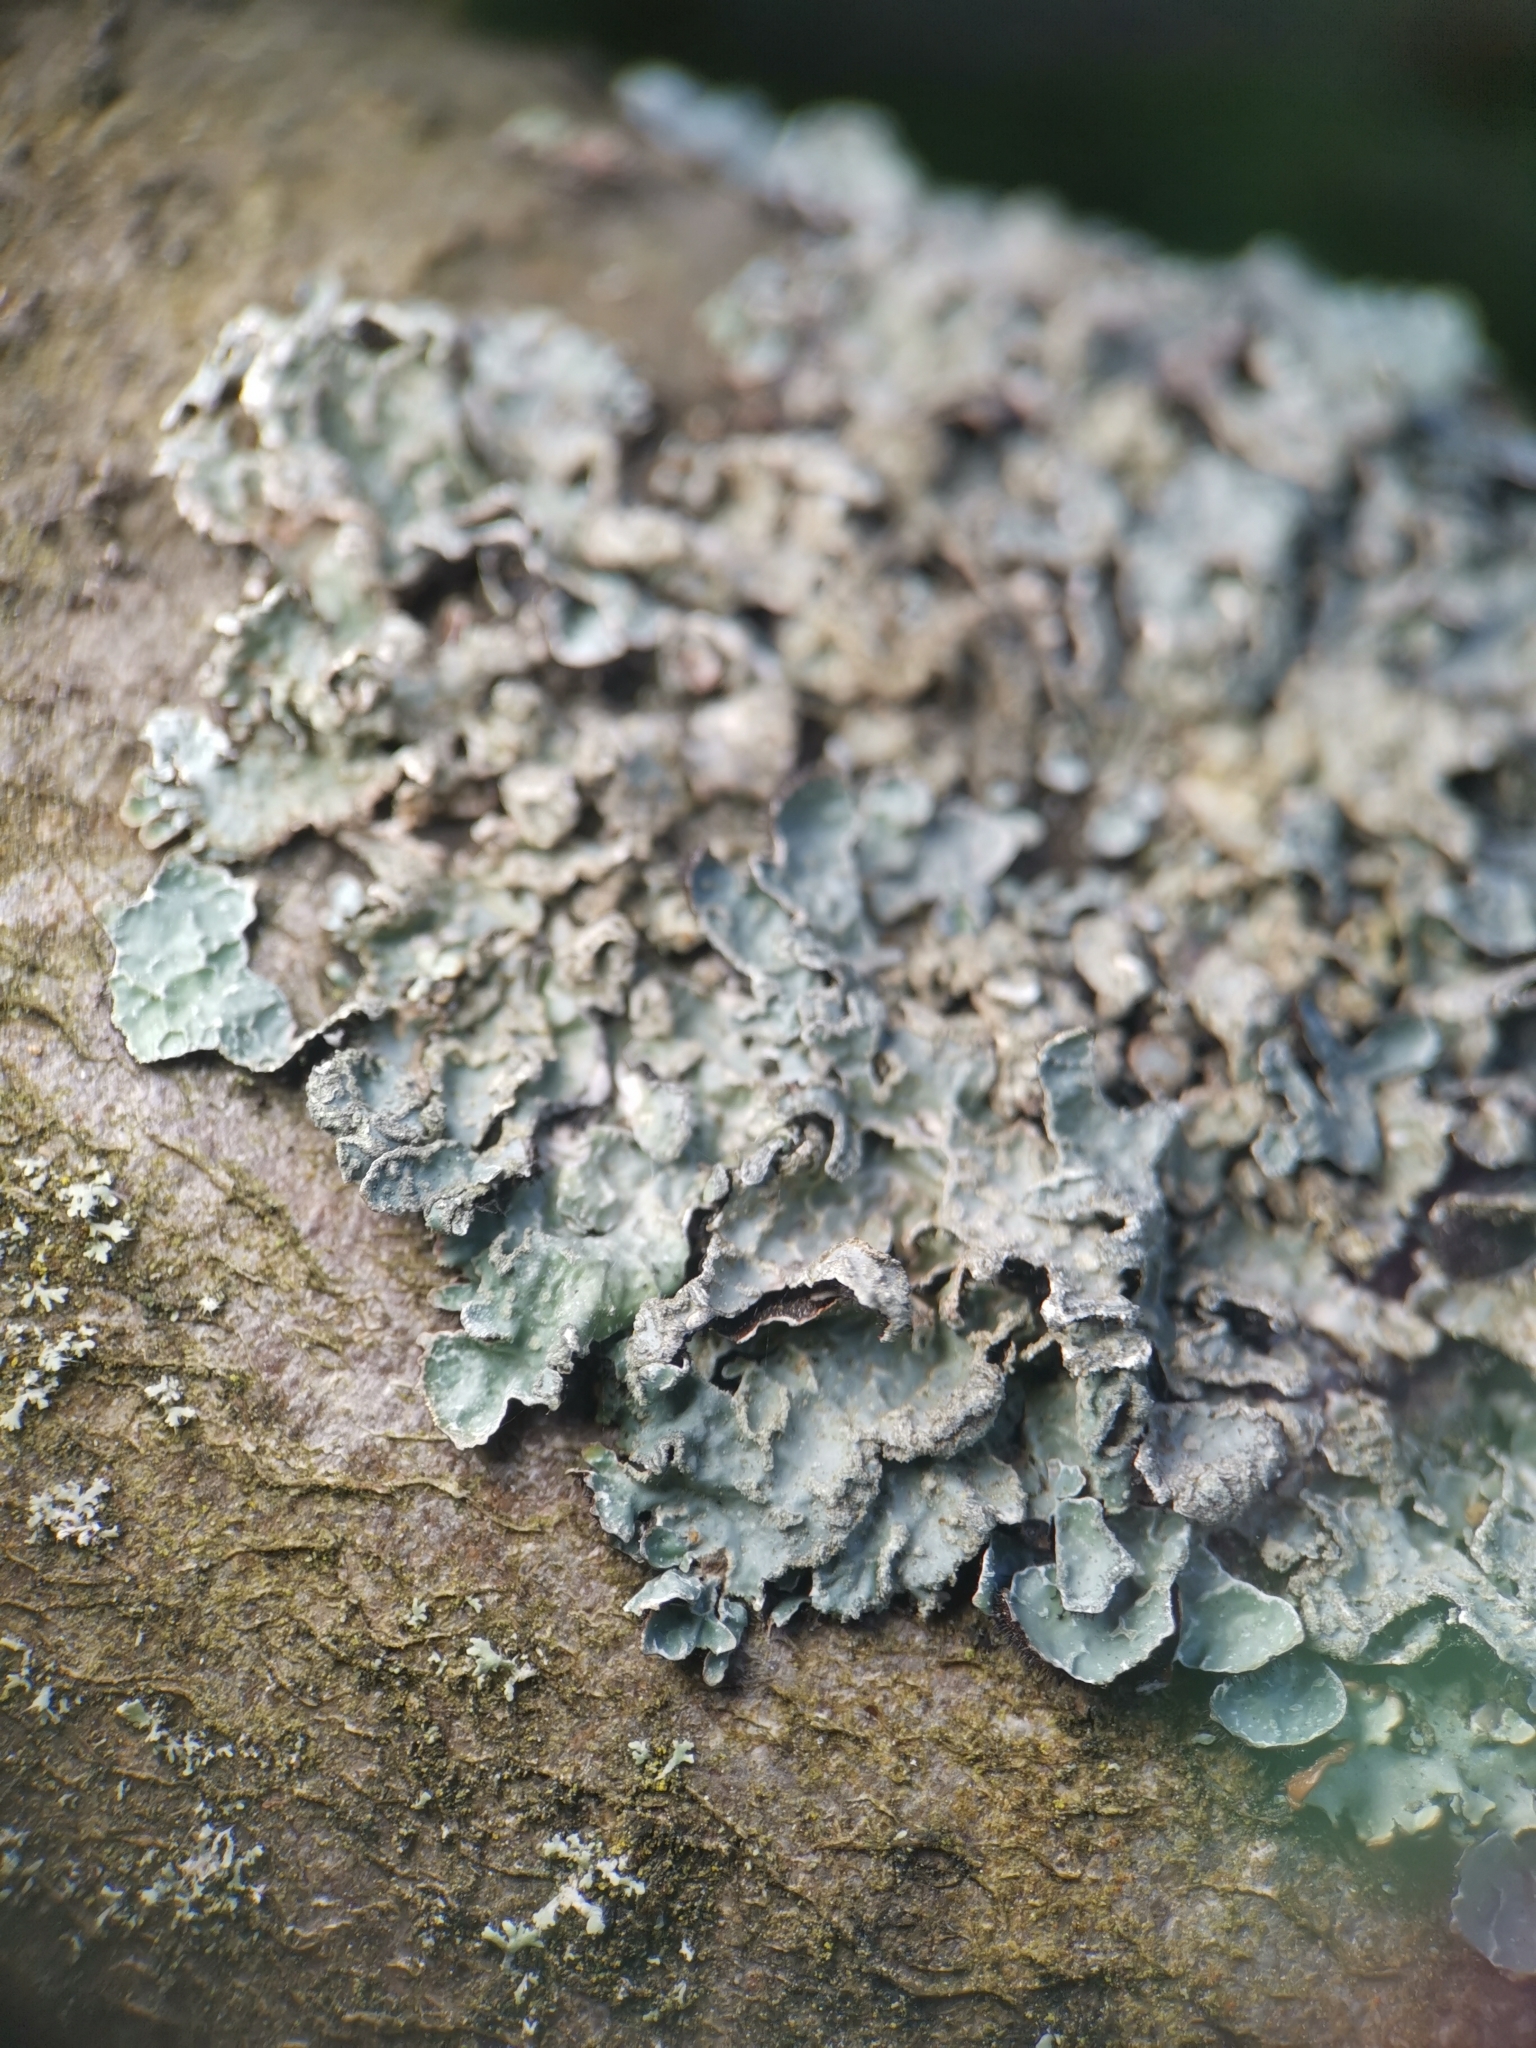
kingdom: Fungi
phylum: Ascomycota
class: Lecanoromycetes
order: Lecanorales
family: Parmeliaceae
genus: Parmelia
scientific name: Parmelia sulcata
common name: Netted shield lichen
